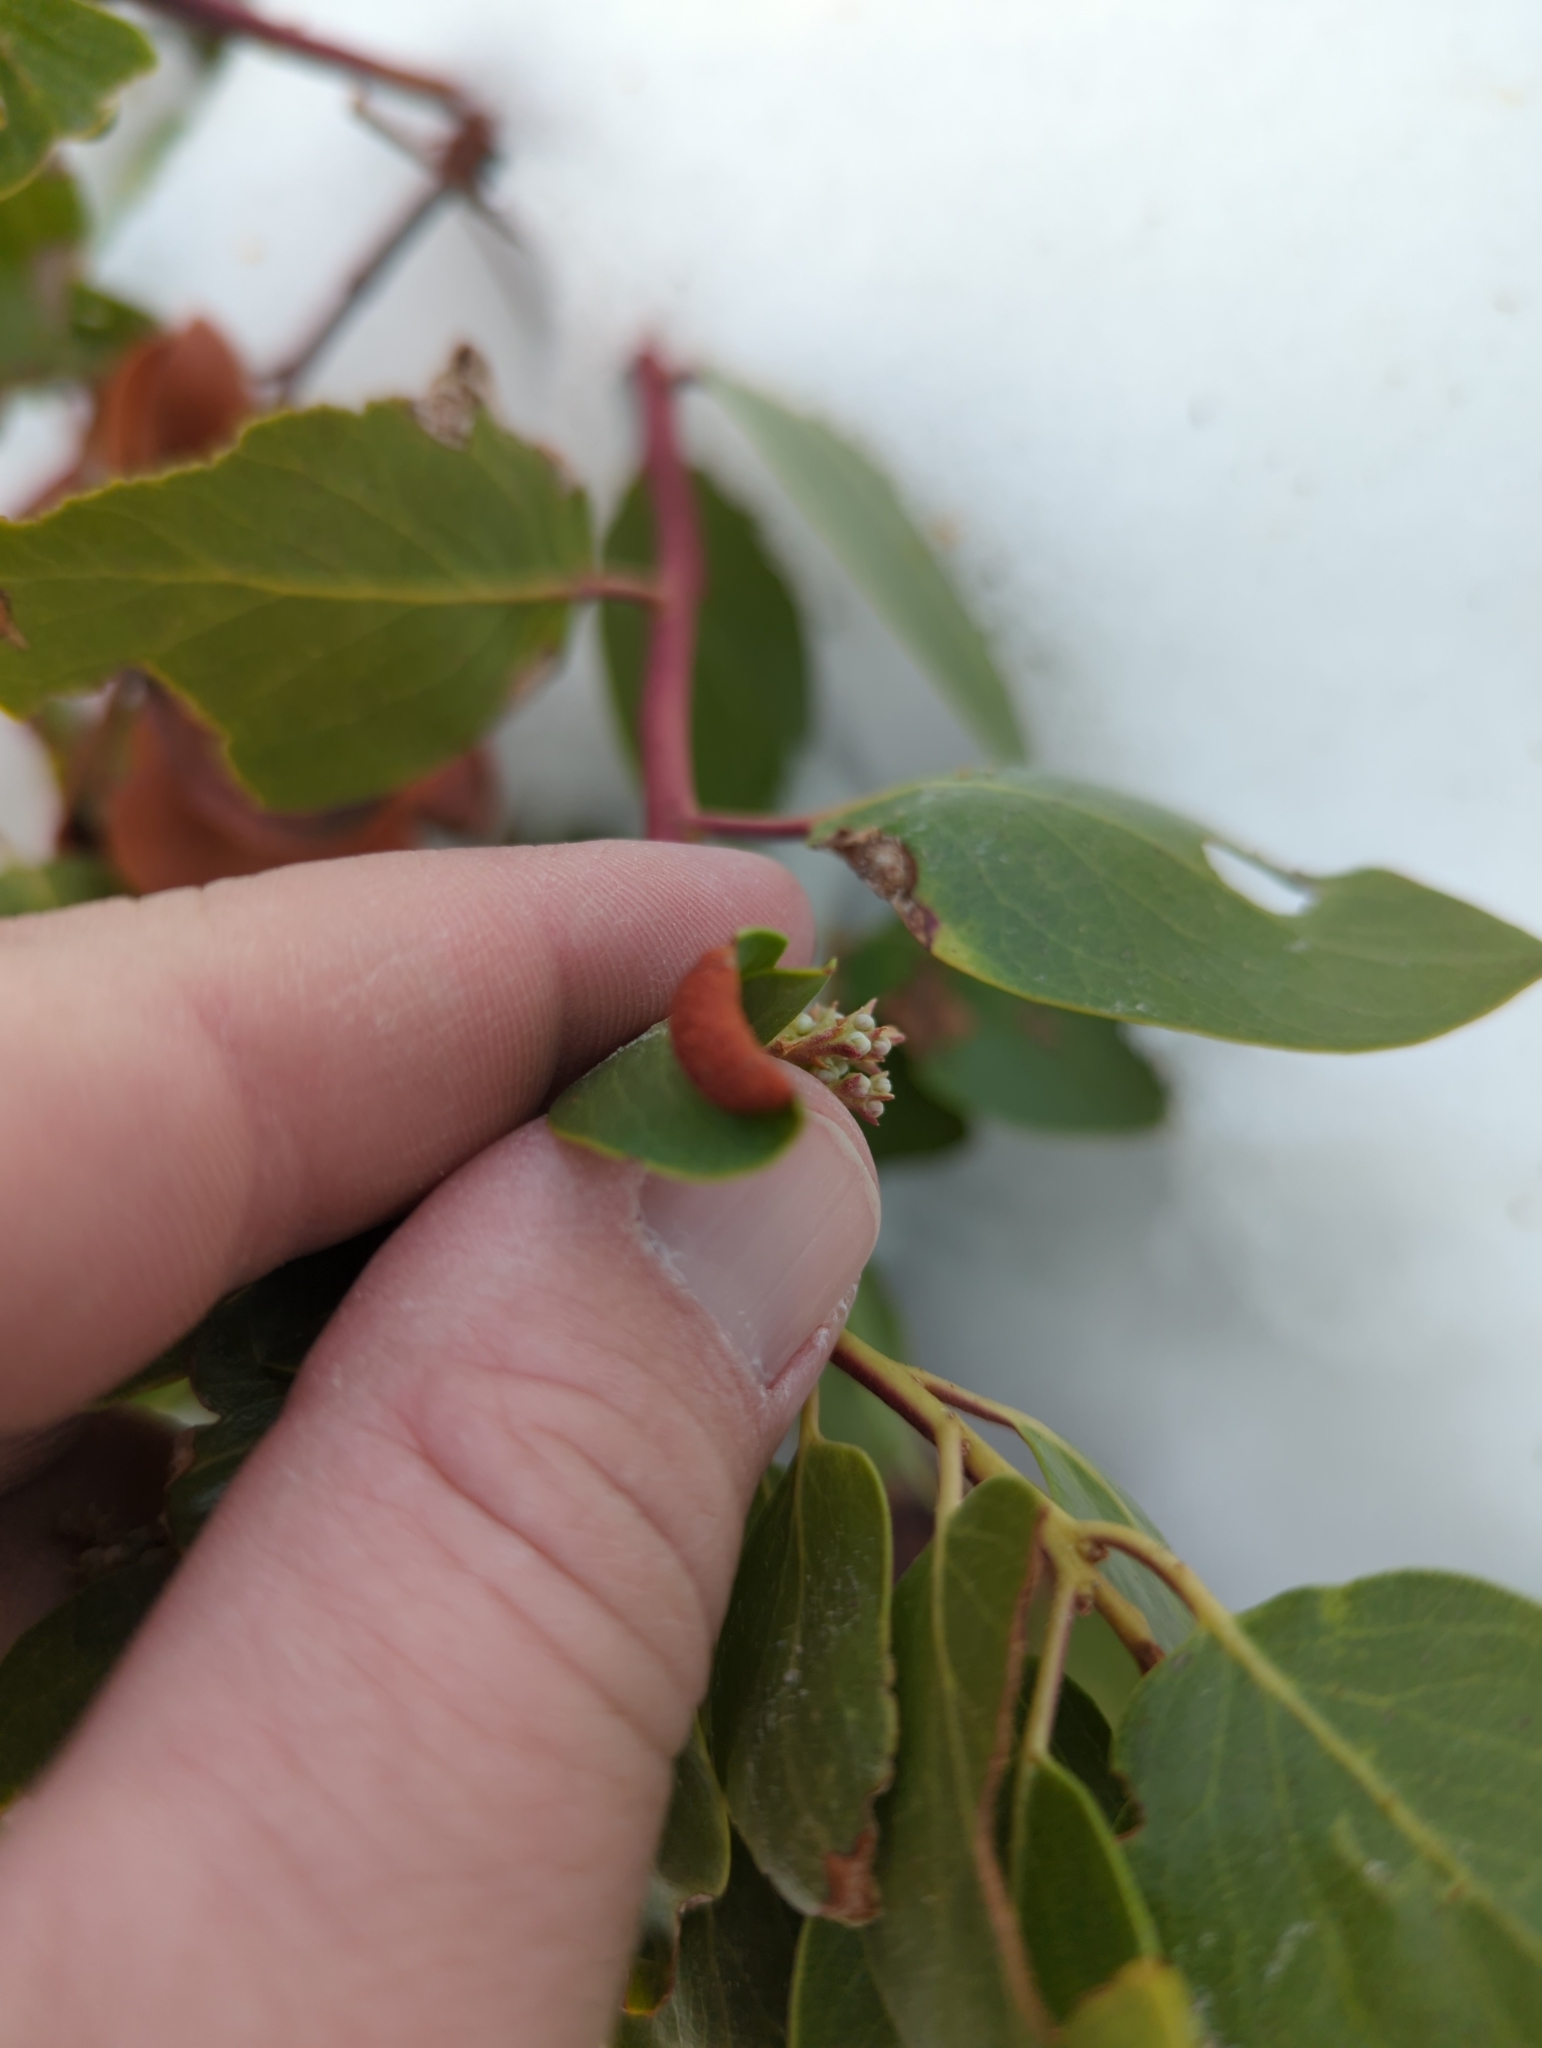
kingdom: Animalia
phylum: Arthropoda
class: Insecta
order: Hemiptera
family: Aphididae
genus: Tamalia
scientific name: Tamalia coweni
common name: Manzanita leafgall aphid
